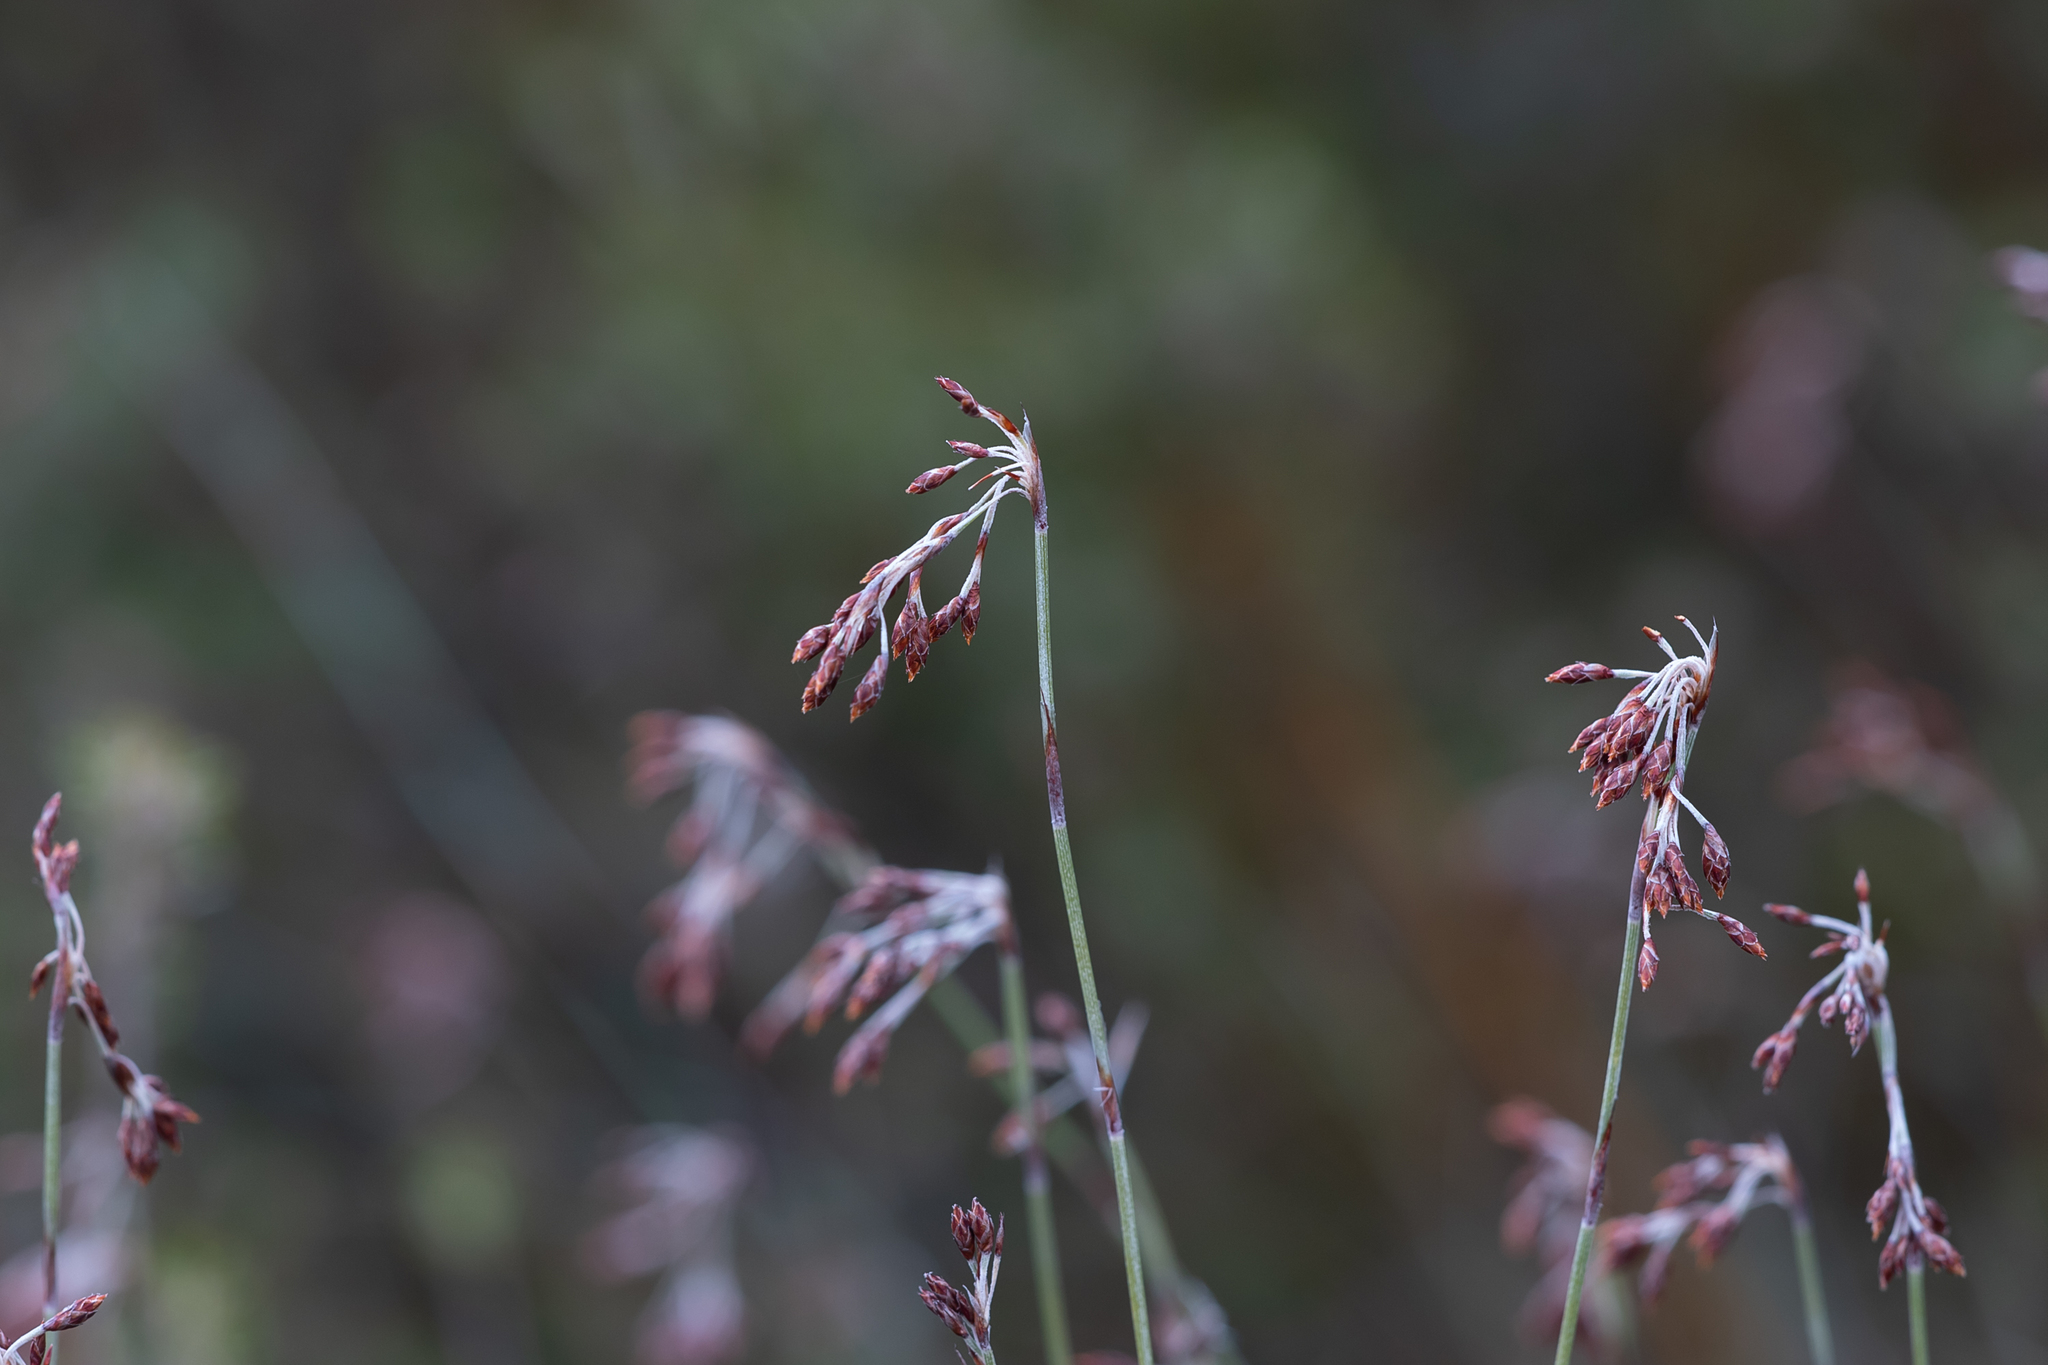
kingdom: Plantae
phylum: Tracheophyta
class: Liliopsida
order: Poales
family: Restionaceae
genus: Hypolaena
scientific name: Hypolaena fastigiata
